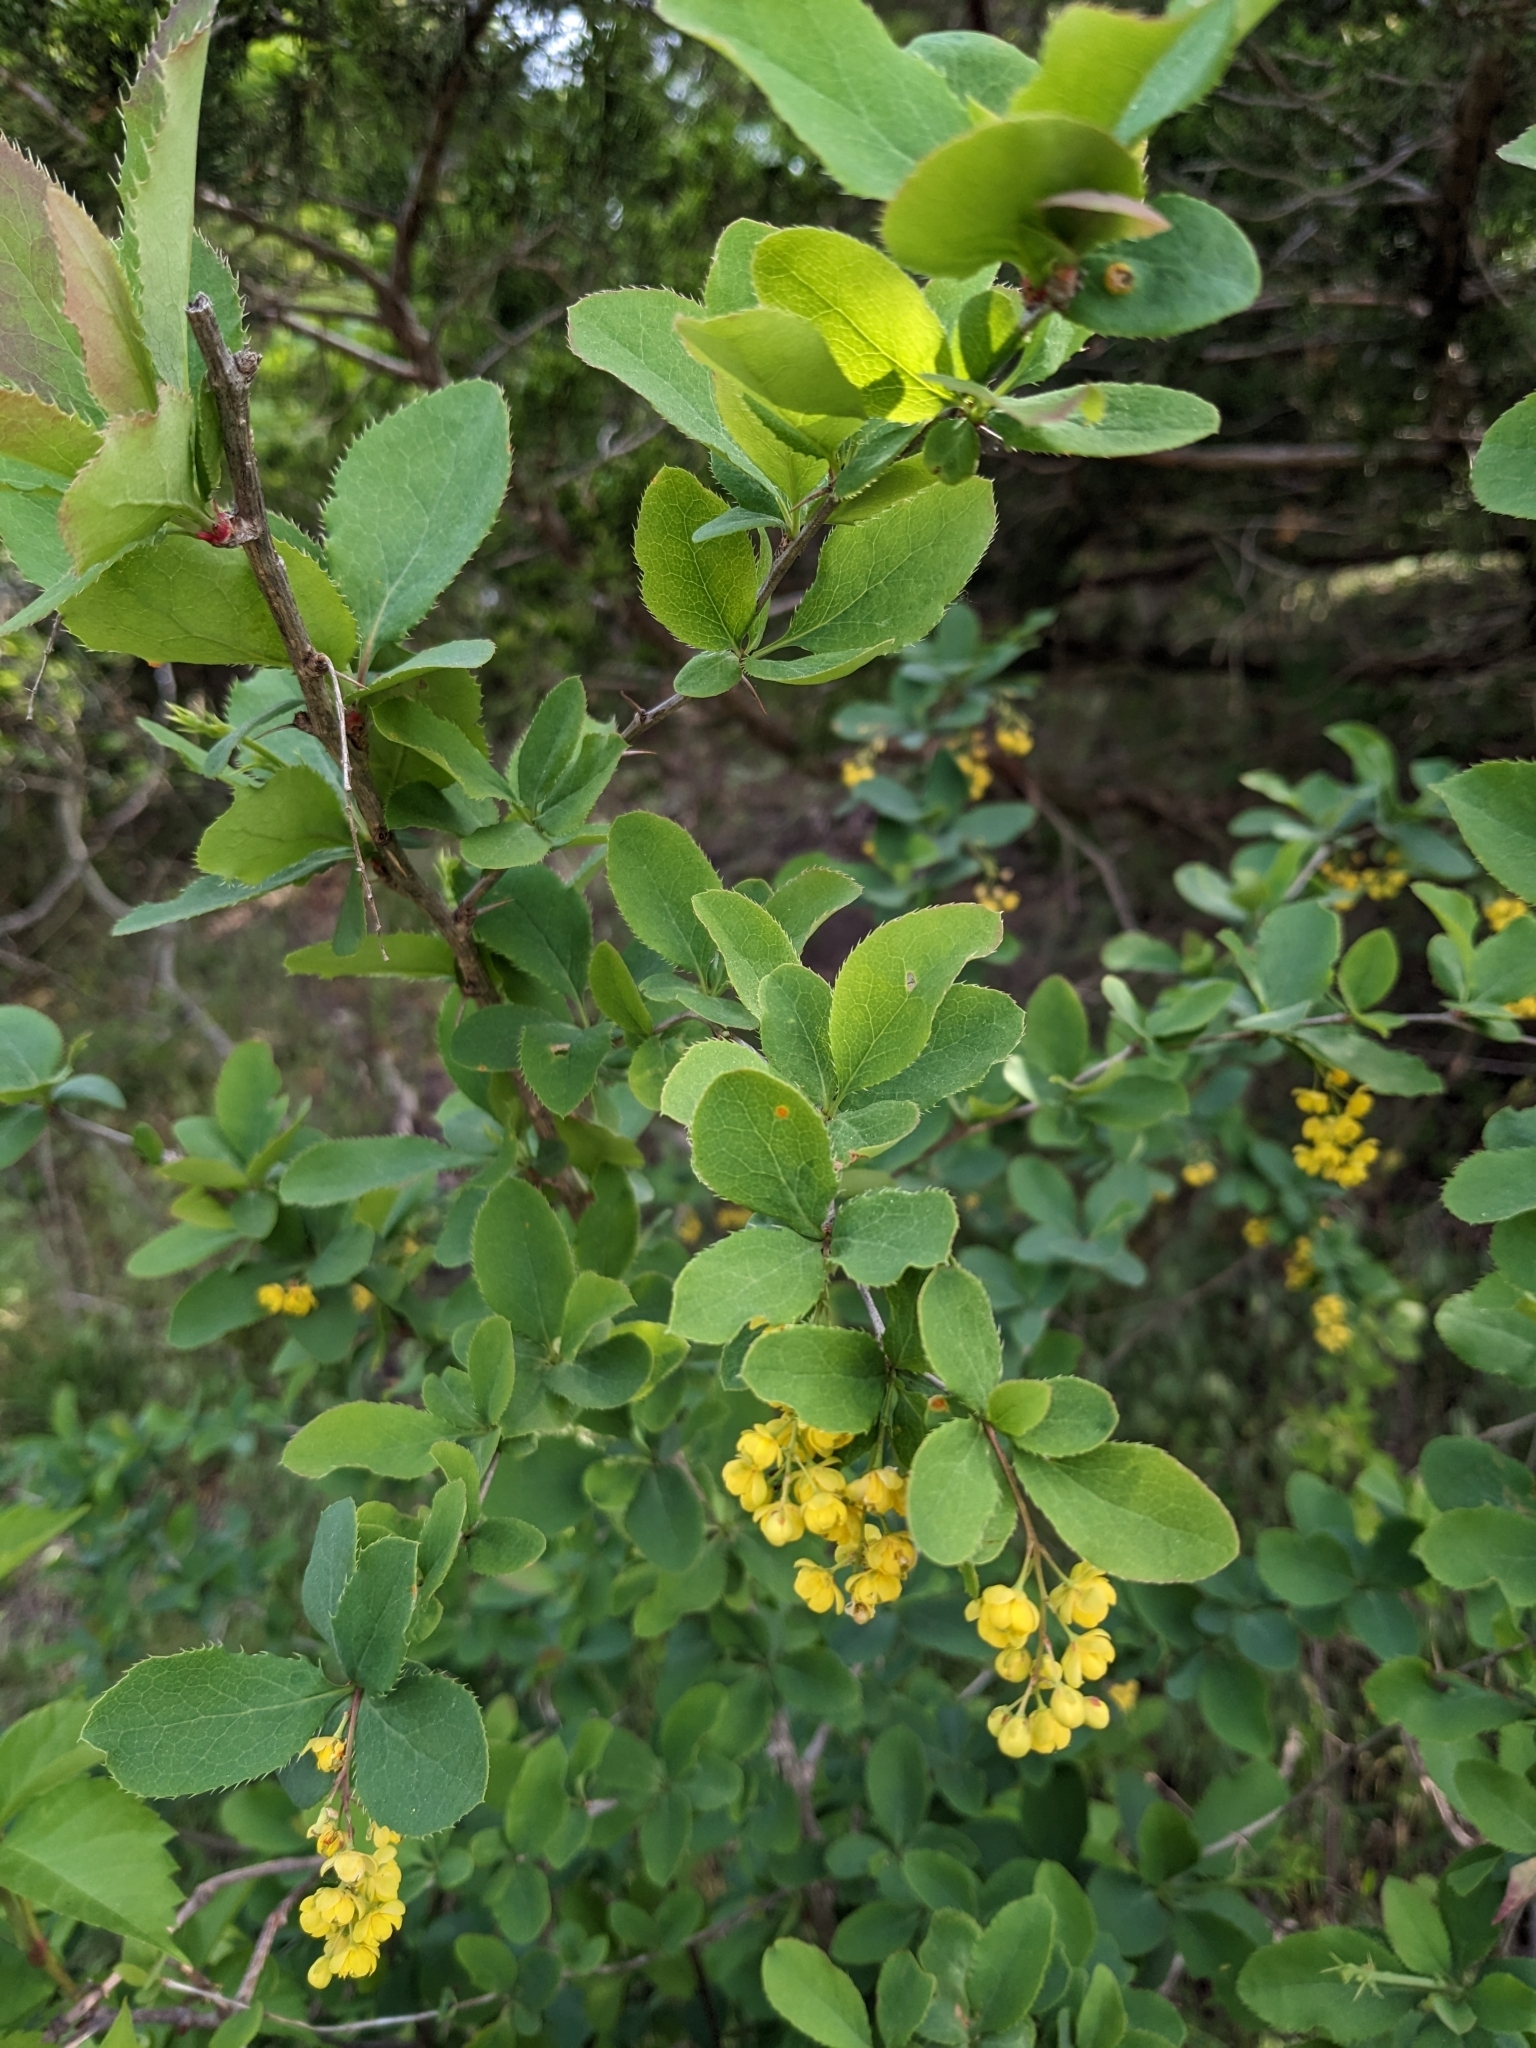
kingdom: Plantae
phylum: Tracheophyta
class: Magnoliopsida
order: Ranunculales
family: Berberidaceae
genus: Berberis
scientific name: Berberis vulgaris
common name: Barberry
